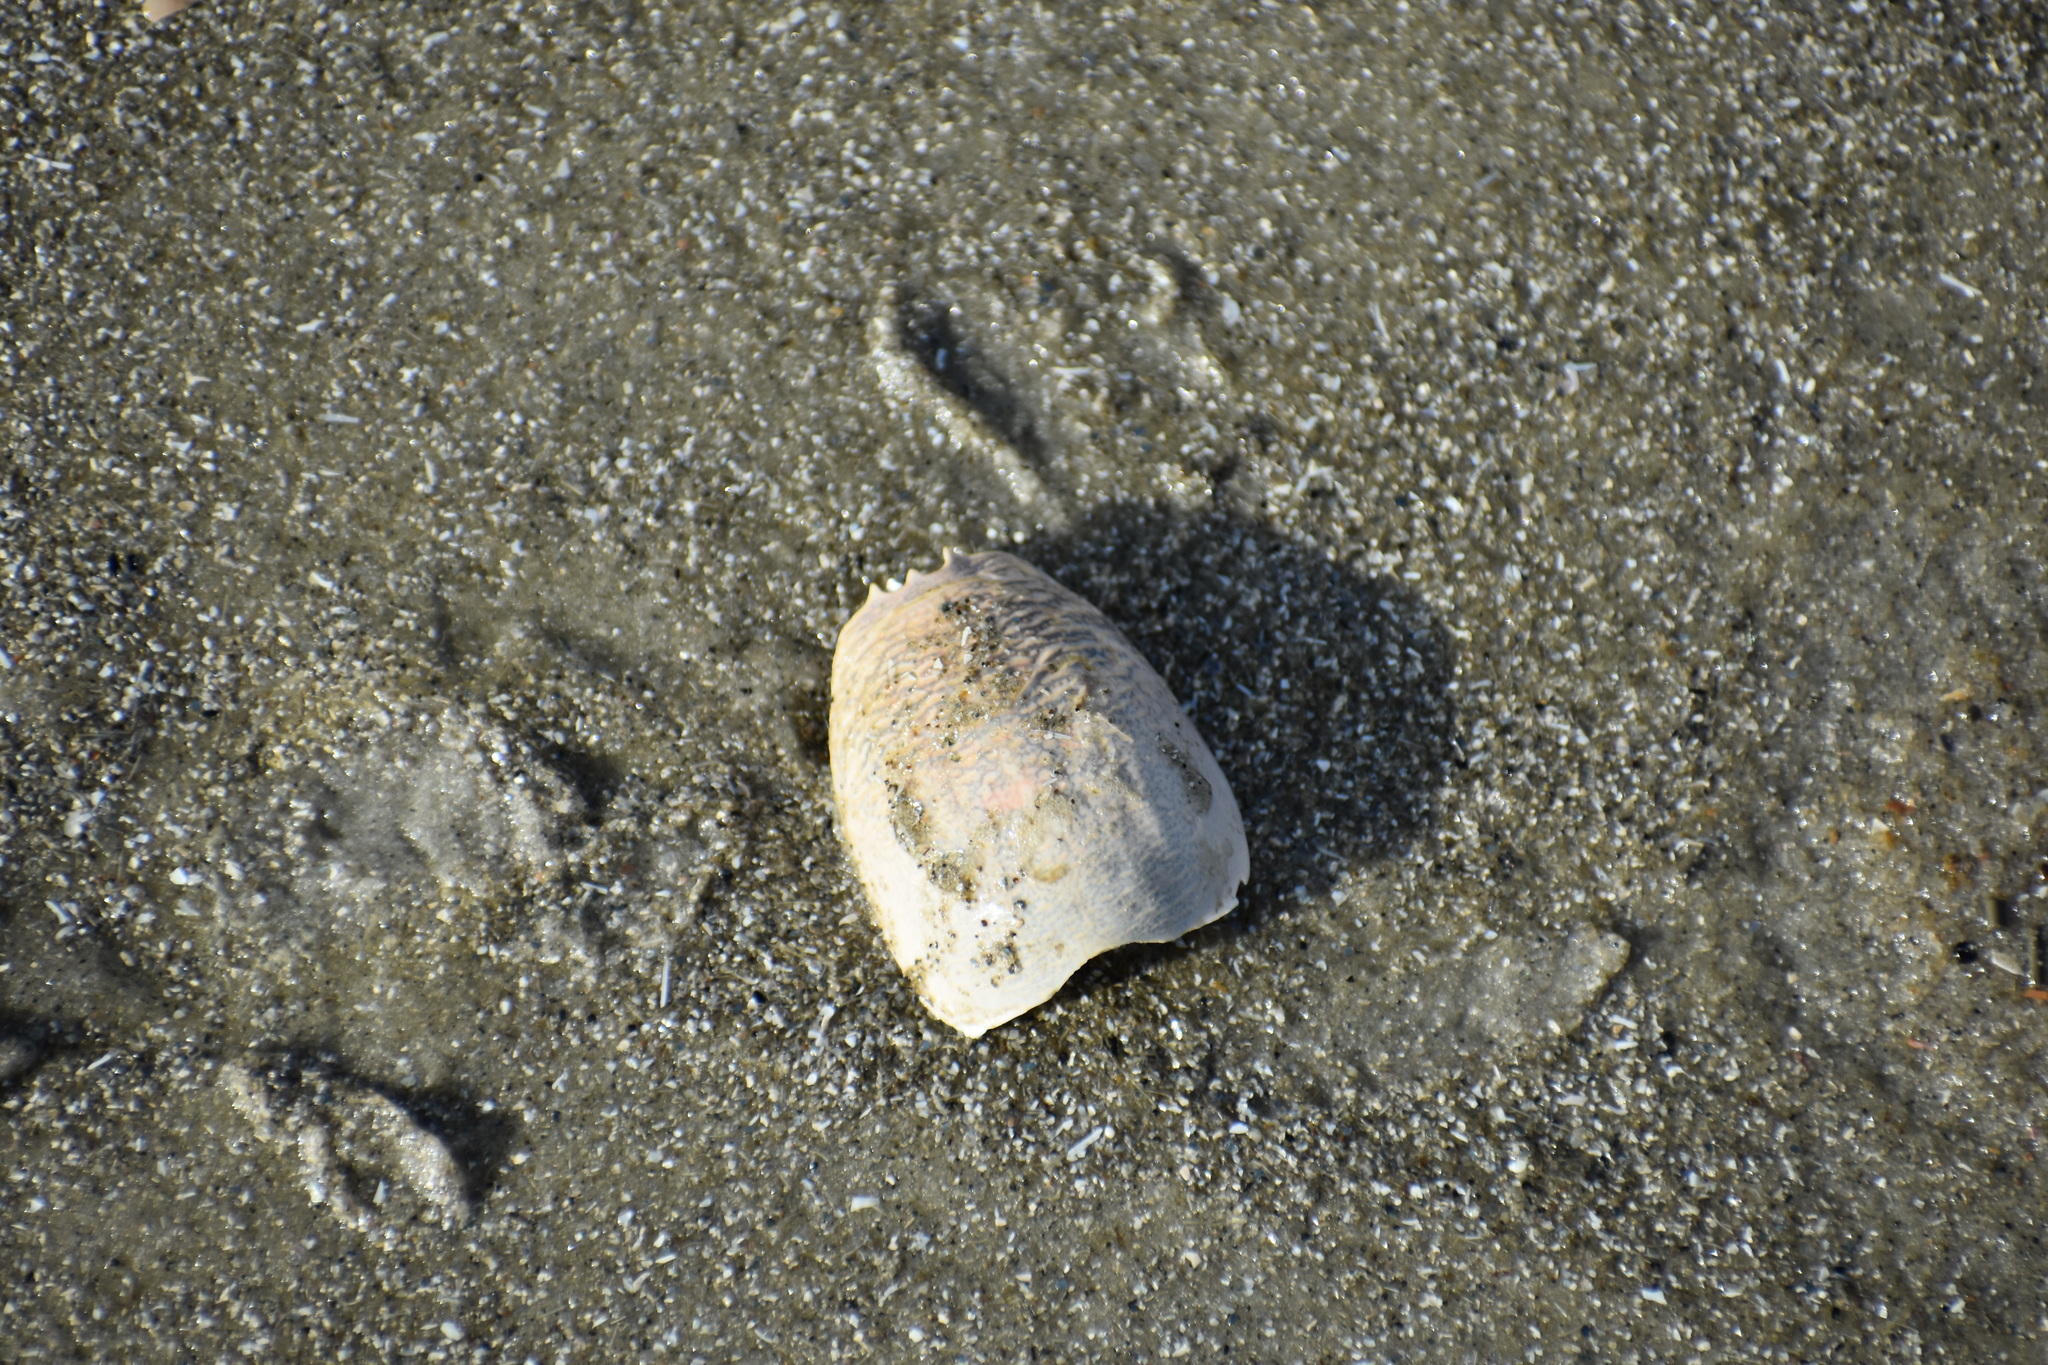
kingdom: Animalia
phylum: Arthropoda
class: Malacostraca
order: Decapoda
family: Hippidae
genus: Emerita
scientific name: Emerita talpoida
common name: Atlantic sand crab
